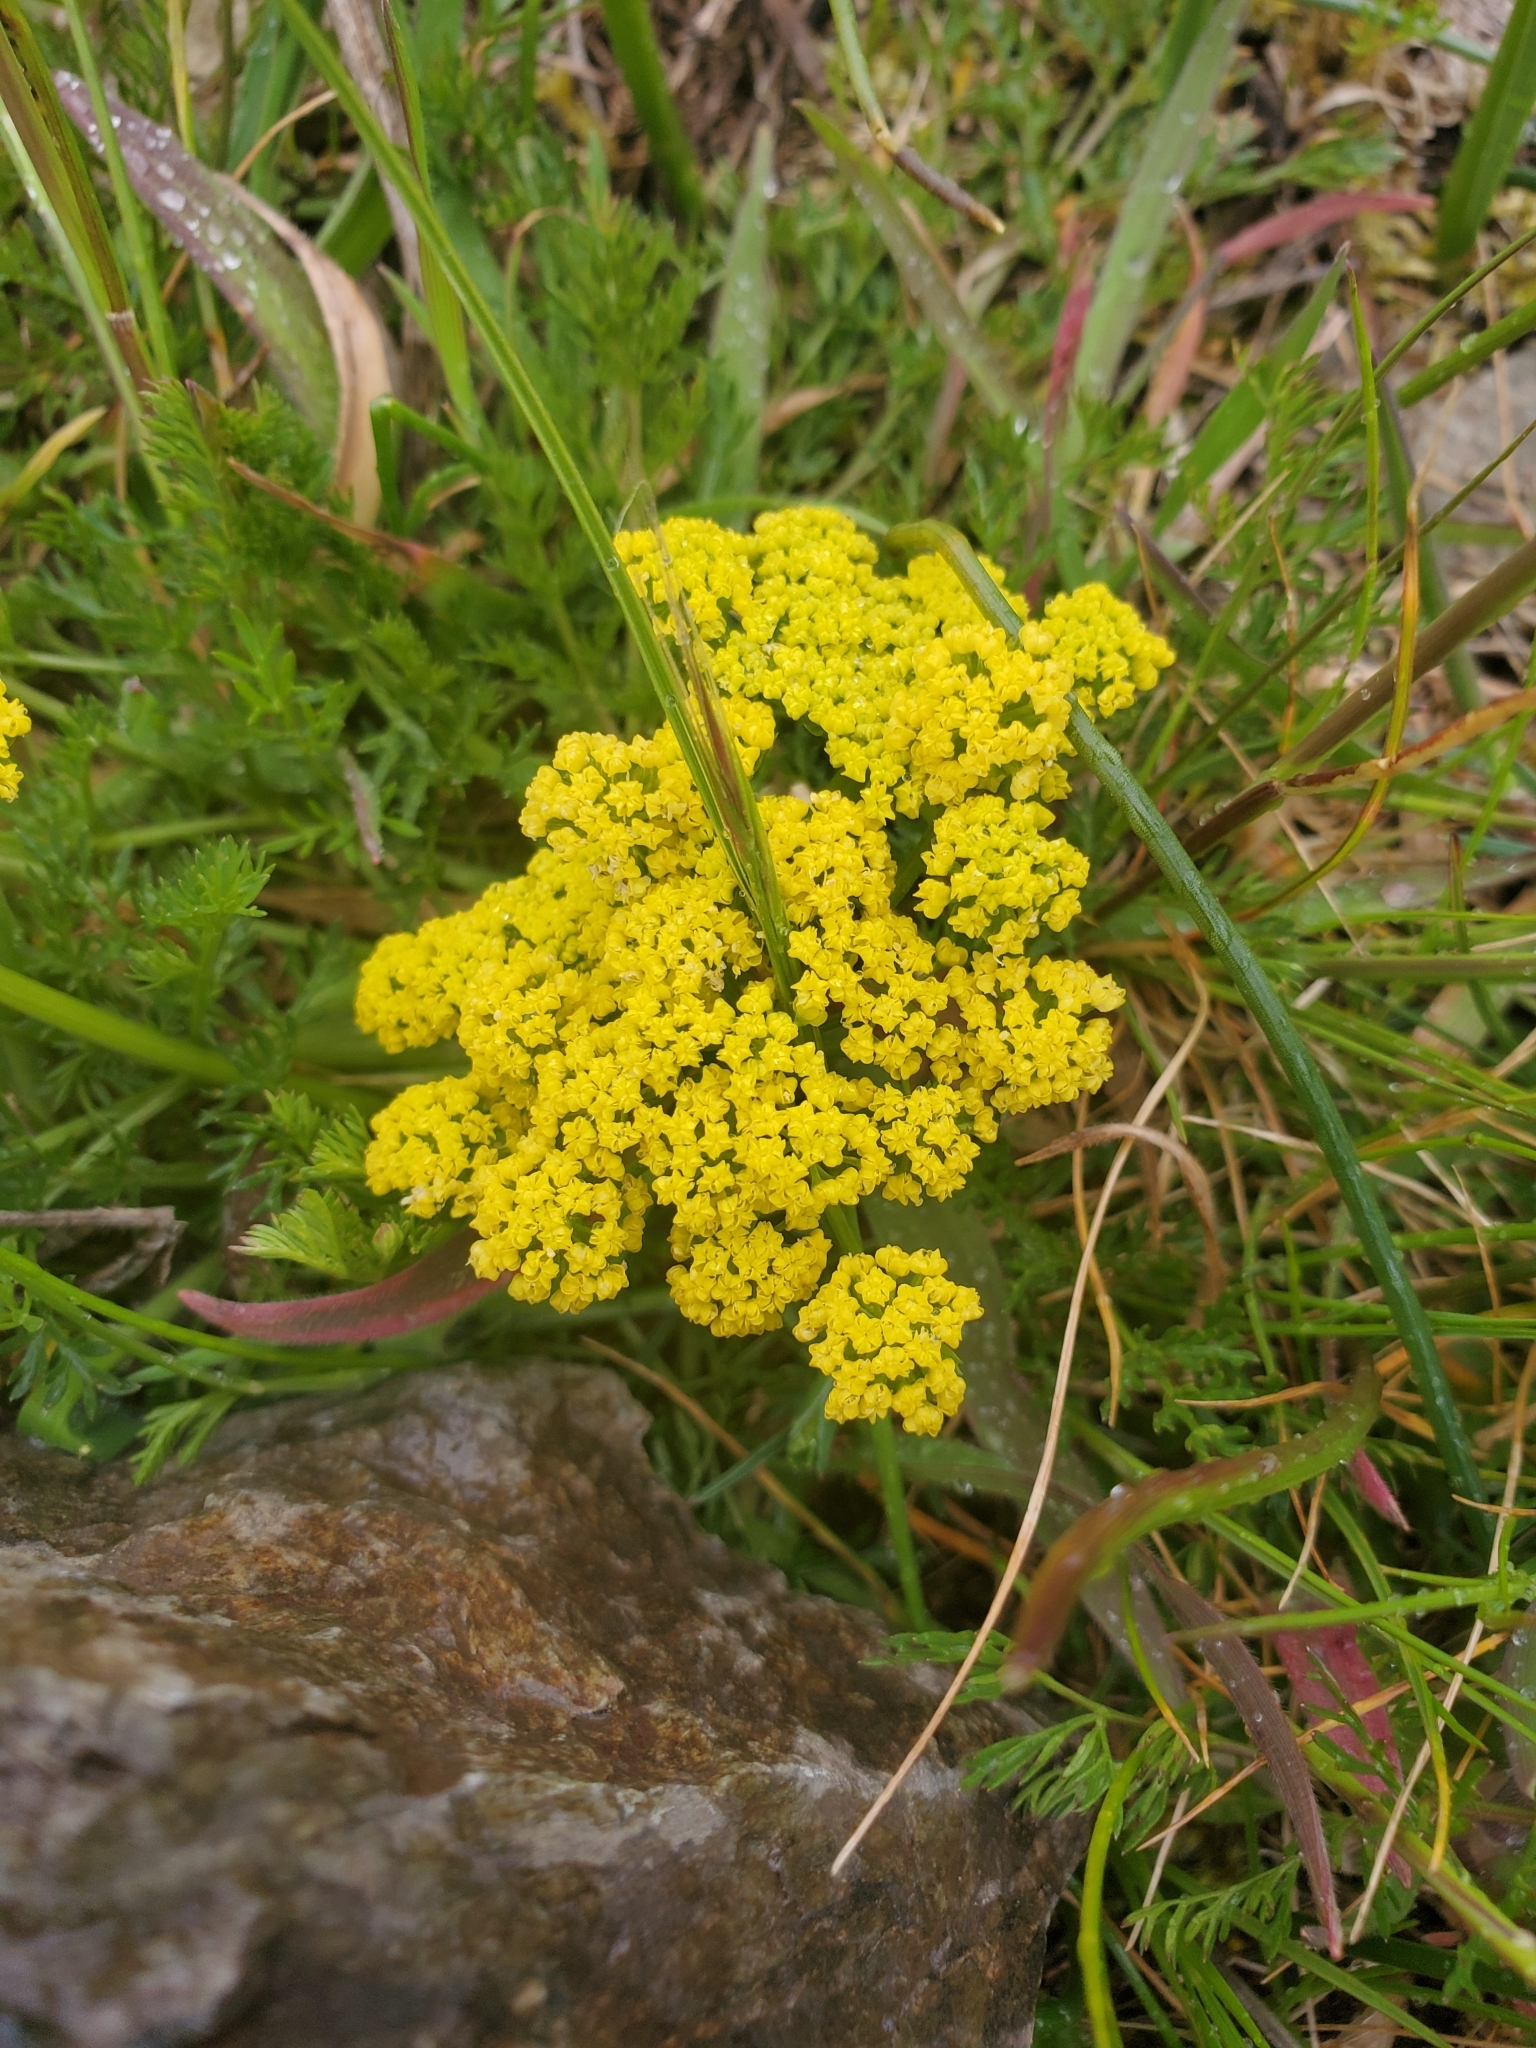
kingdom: Plantae
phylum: Tracheophyta
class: Magnoliopsida
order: Apiales
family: Apiaceae
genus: Lomatium
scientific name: Lomatium utriculatum
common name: Fine-leaf desert-parsley
